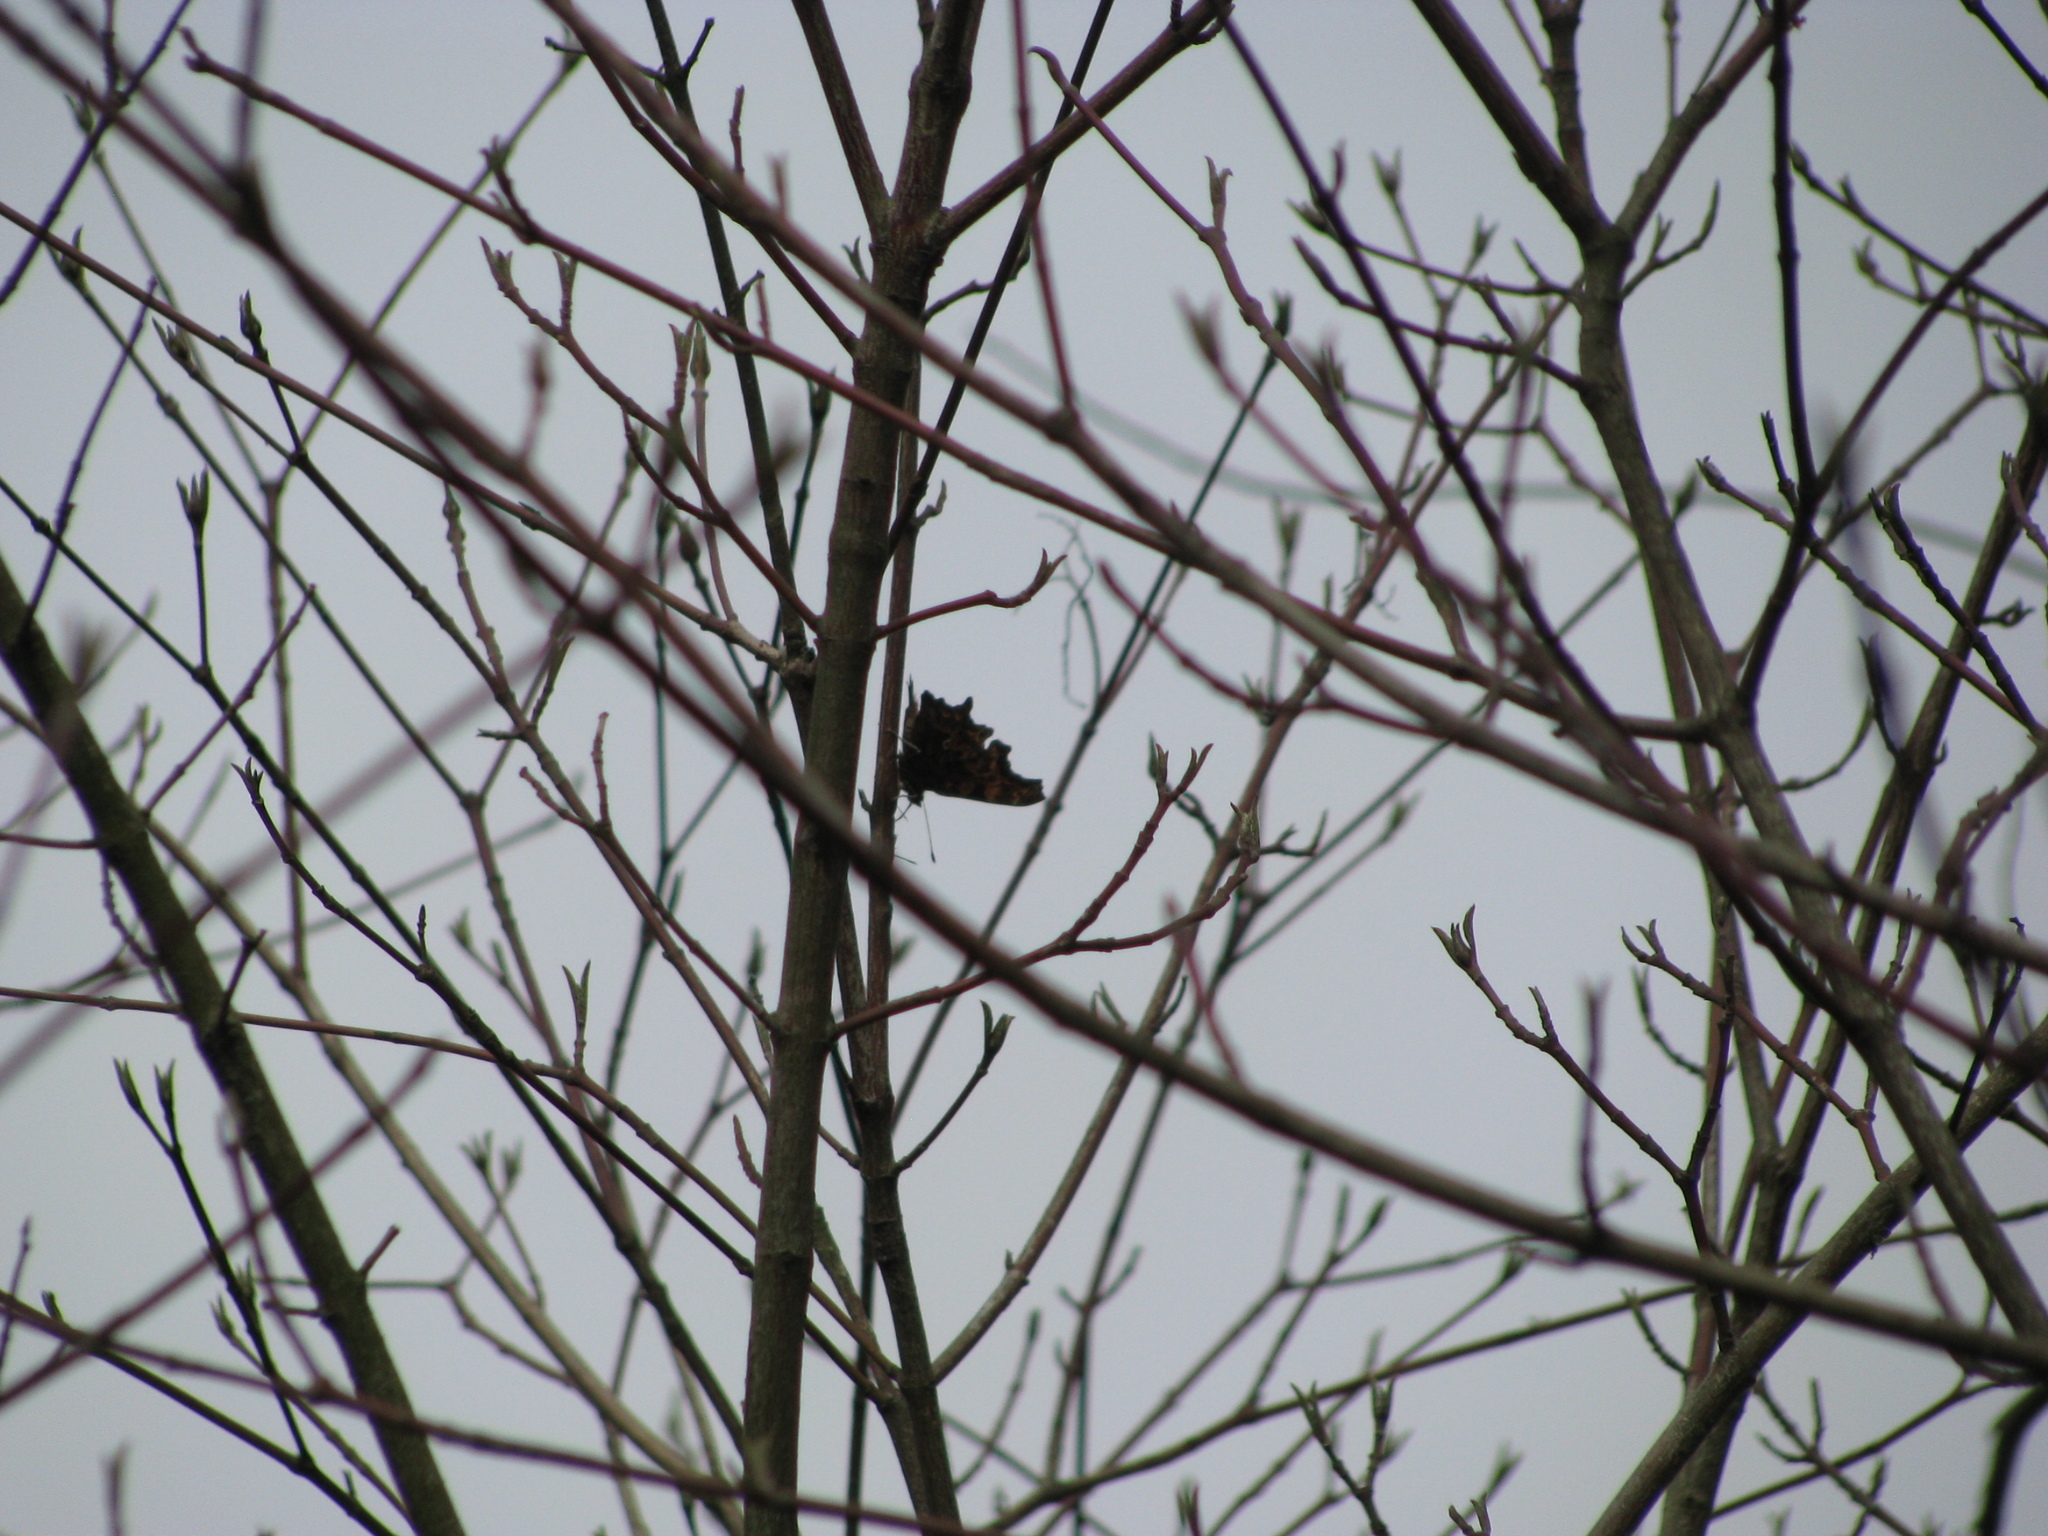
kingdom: Animalia
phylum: Arthropoda
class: Insecta
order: Lepidoptera
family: Nymphalidae
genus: Polygonia
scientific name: Polygonia c-album
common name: Comma
